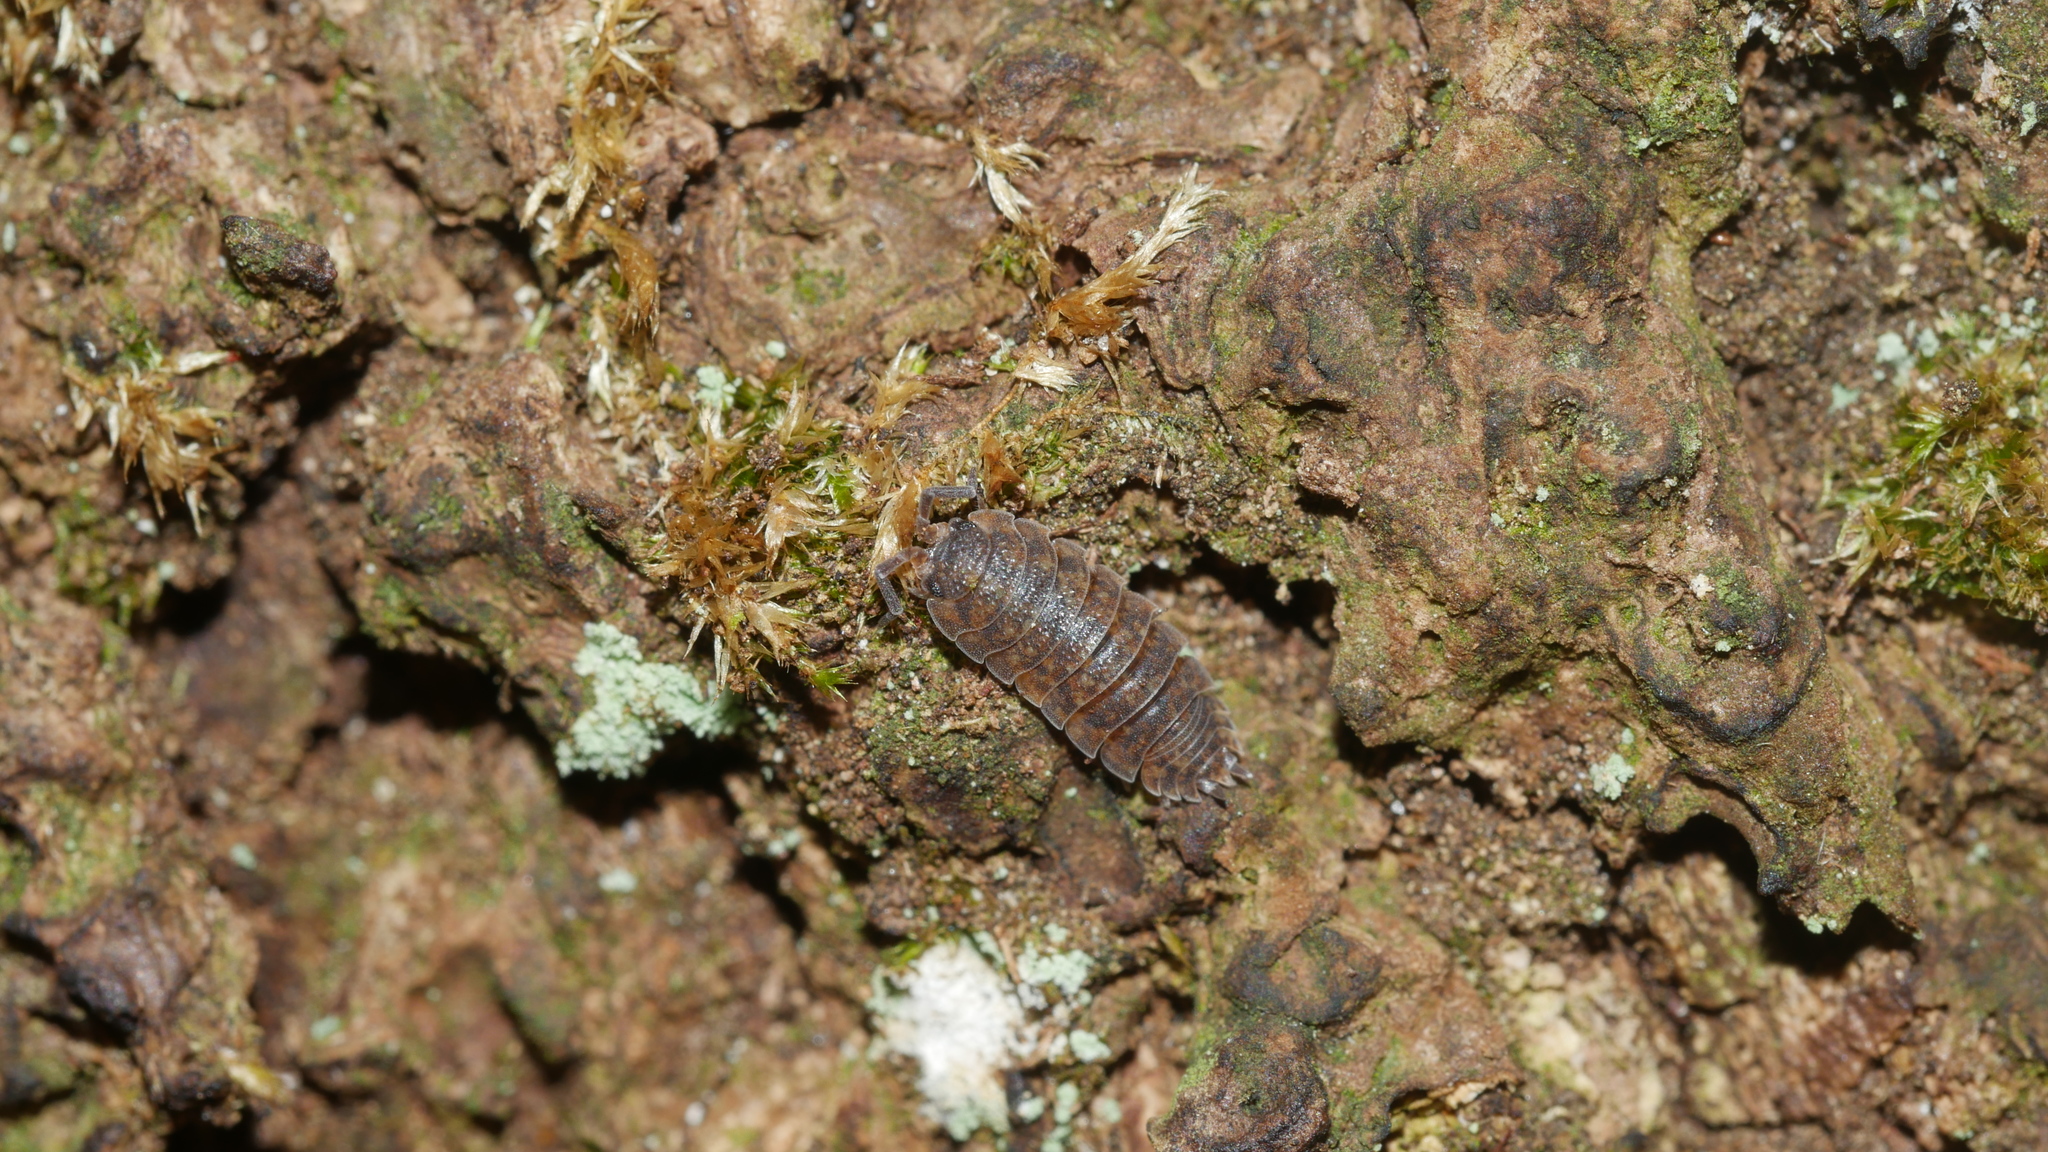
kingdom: Animalia
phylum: Arthropoda
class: Malacostraca
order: Isopoda
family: Porcellionidae
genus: Porcellio
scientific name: Porcellio scaber
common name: Common rough woodlouse
